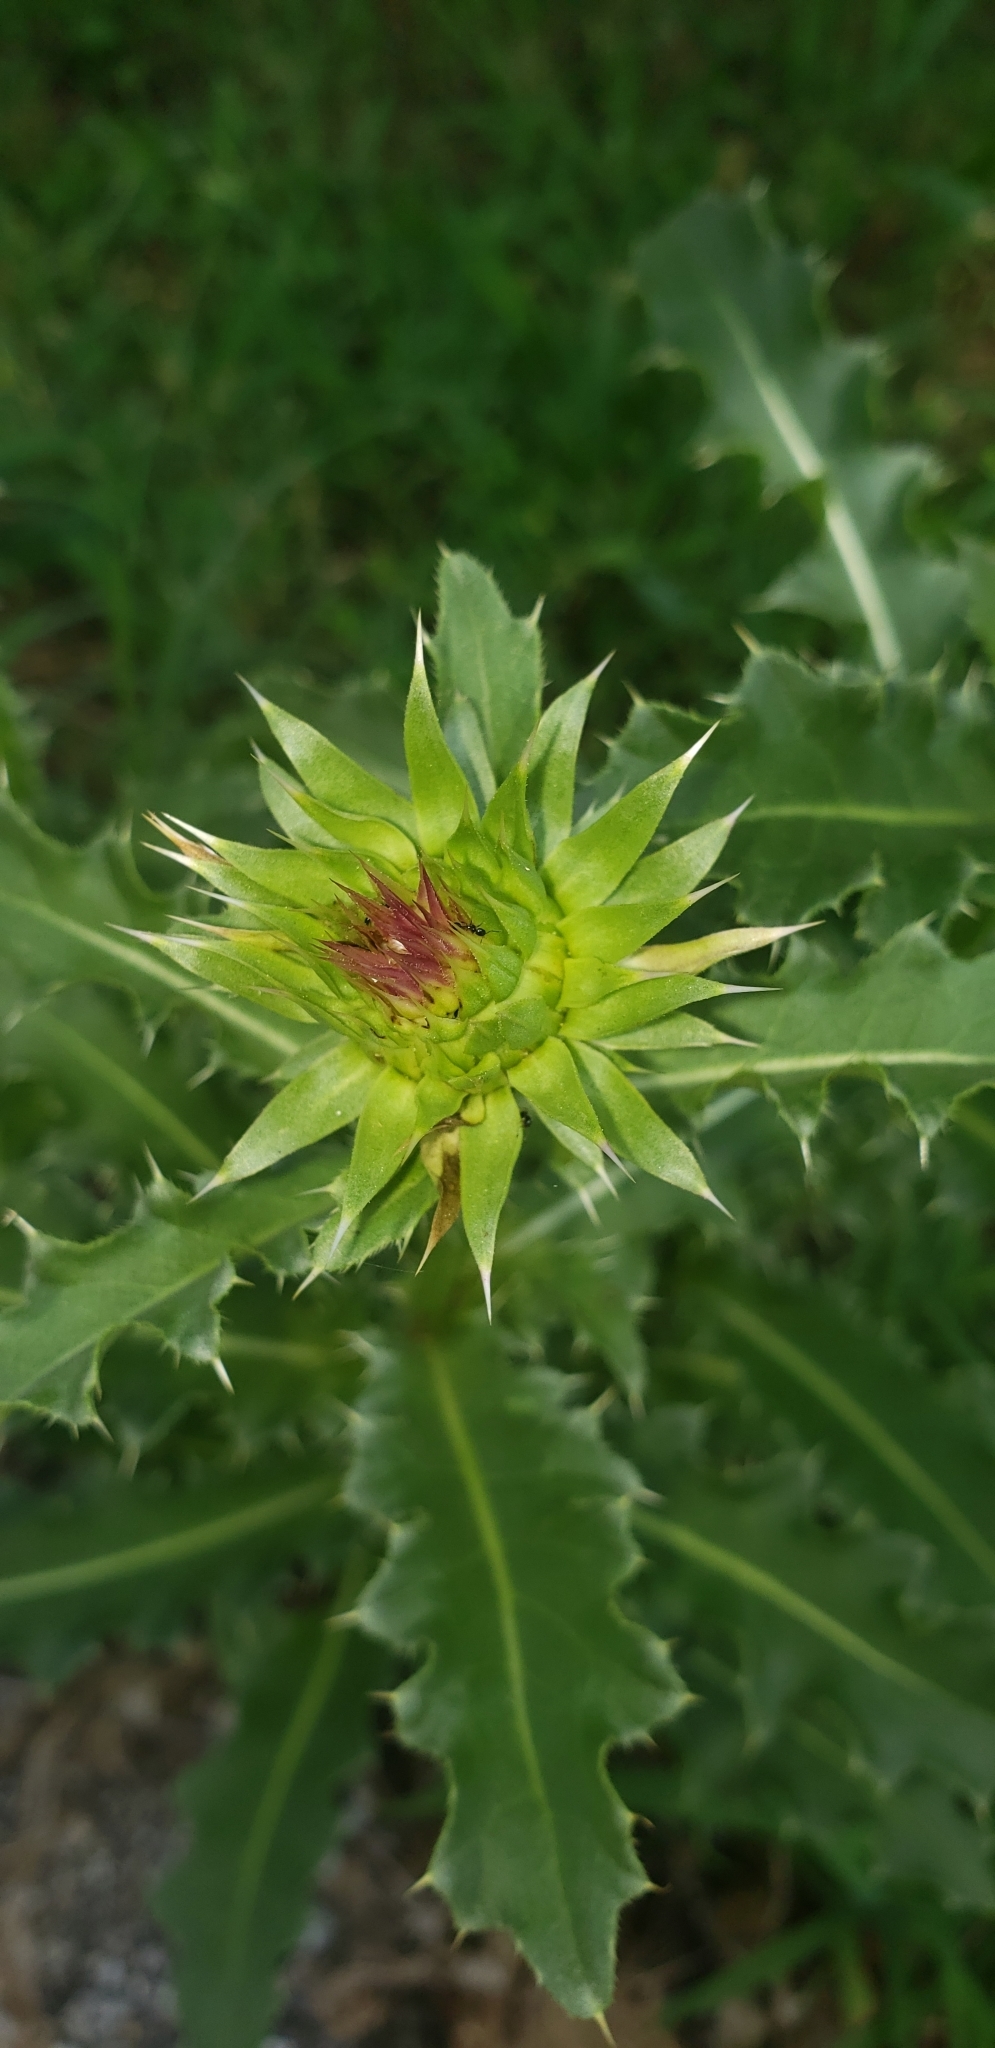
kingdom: Plantae
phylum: Tracheophyta
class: Magnoliopsida
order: Asterales
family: Asteraceae
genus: Carduus
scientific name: Carduus nutans
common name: Musk thistle
